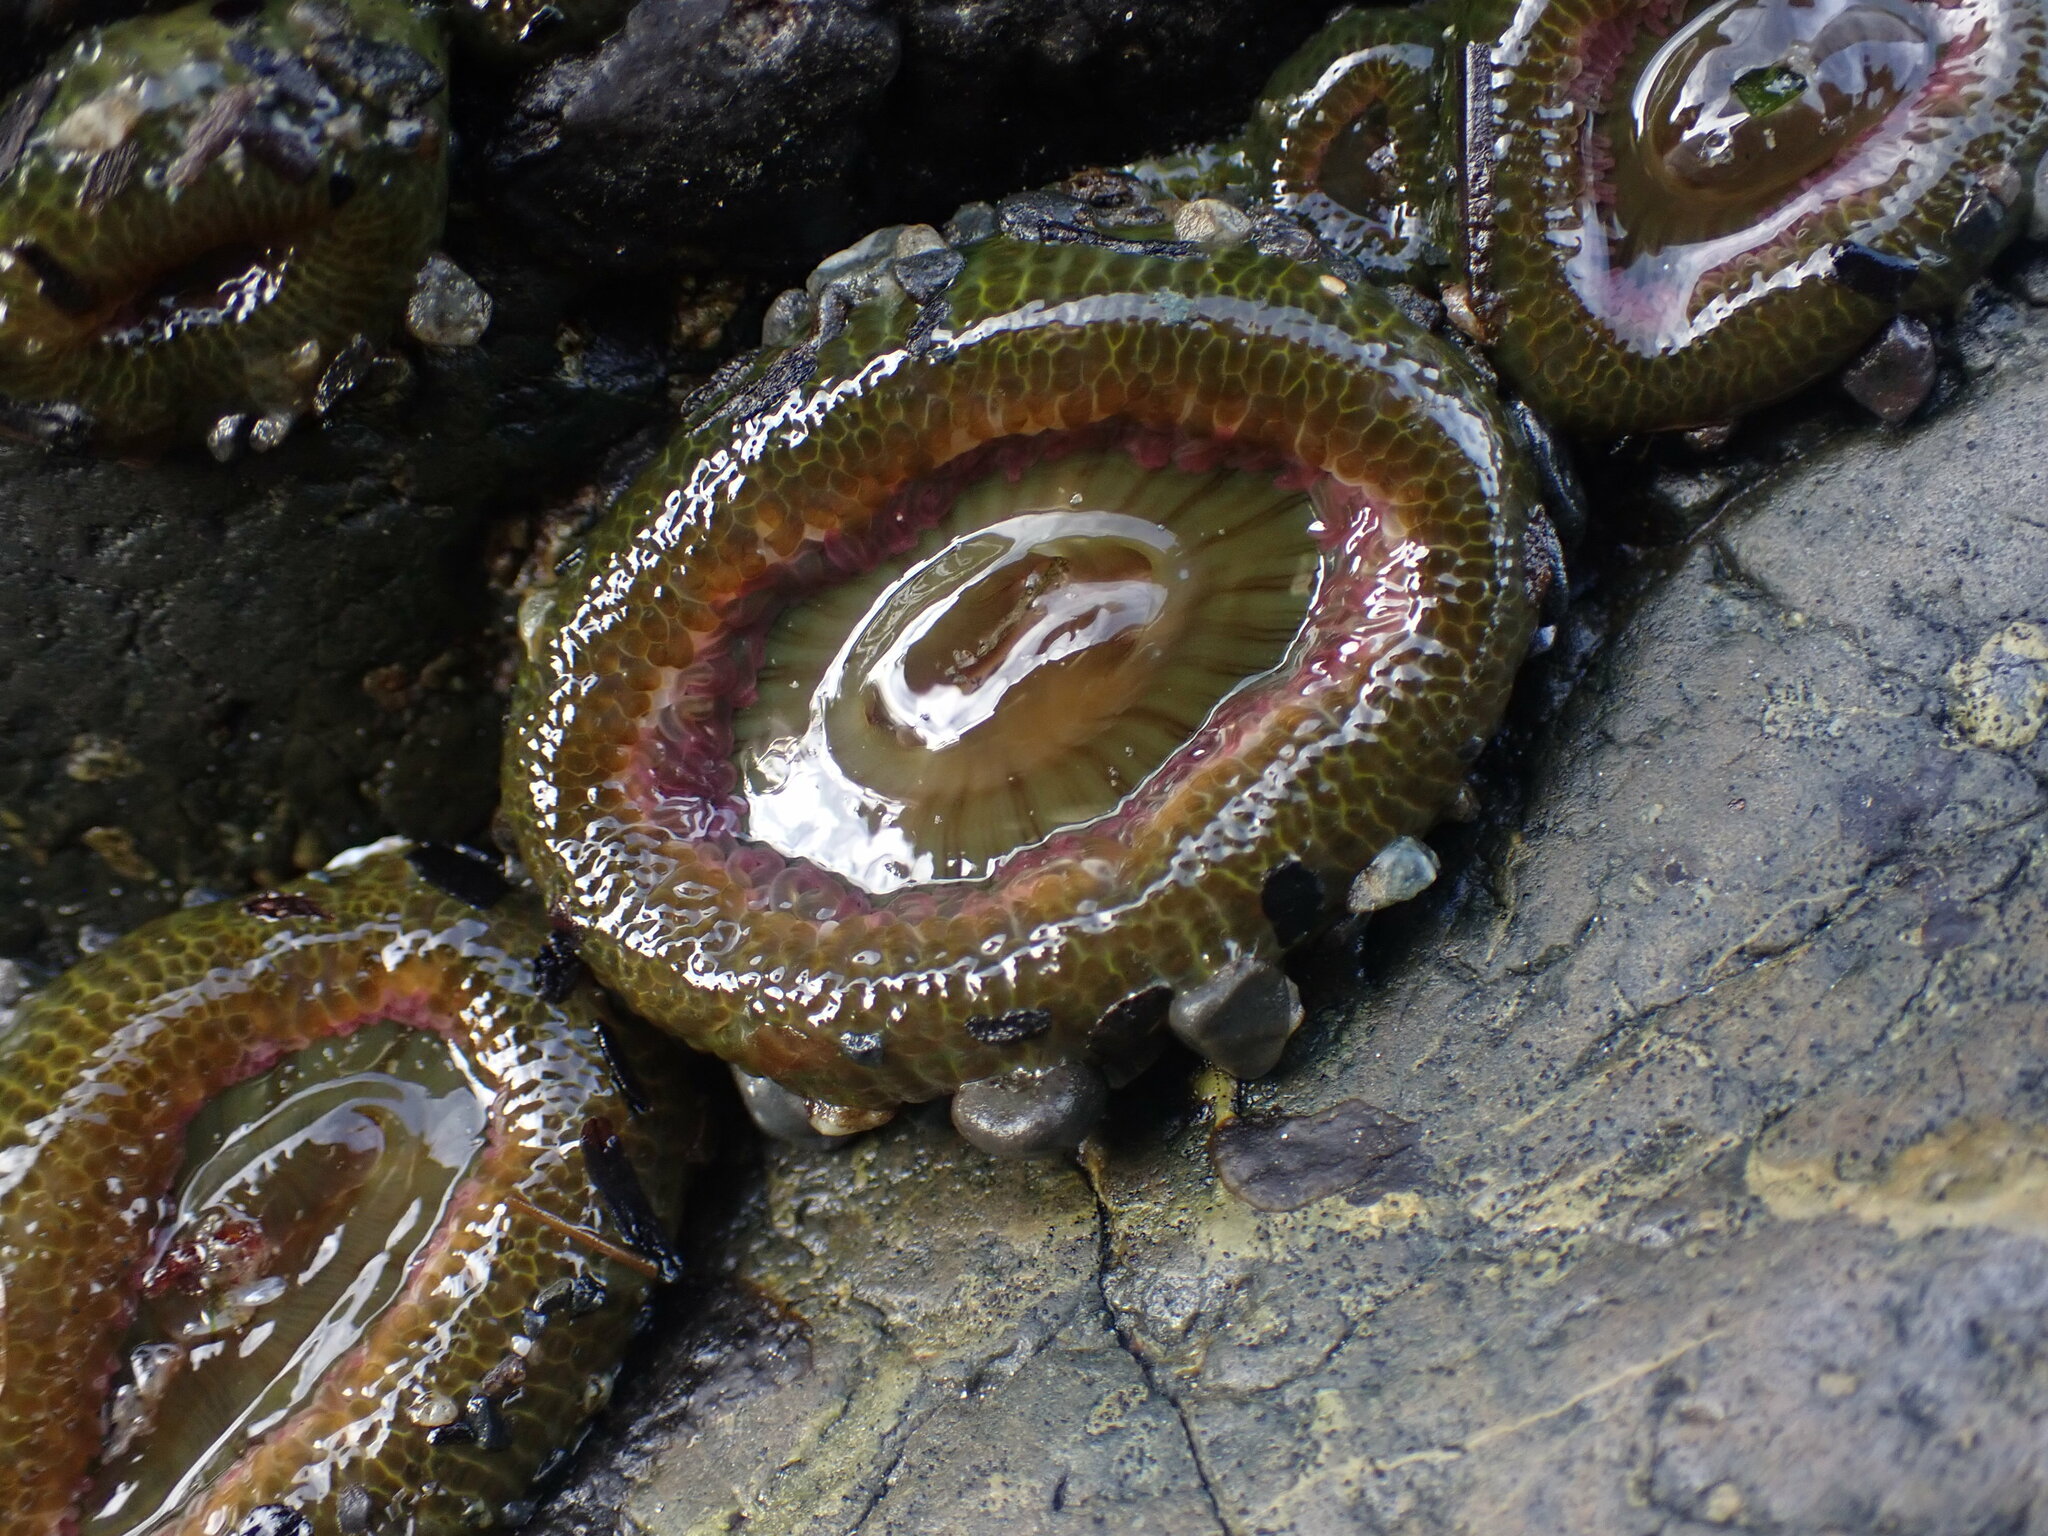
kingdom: Animalia
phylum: Cnidaria
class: Anthozoa
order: Actiniaria
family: Actiniidae
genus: Anthopleura
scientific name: Anthopleura elegantissima
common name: Clonal anemone
